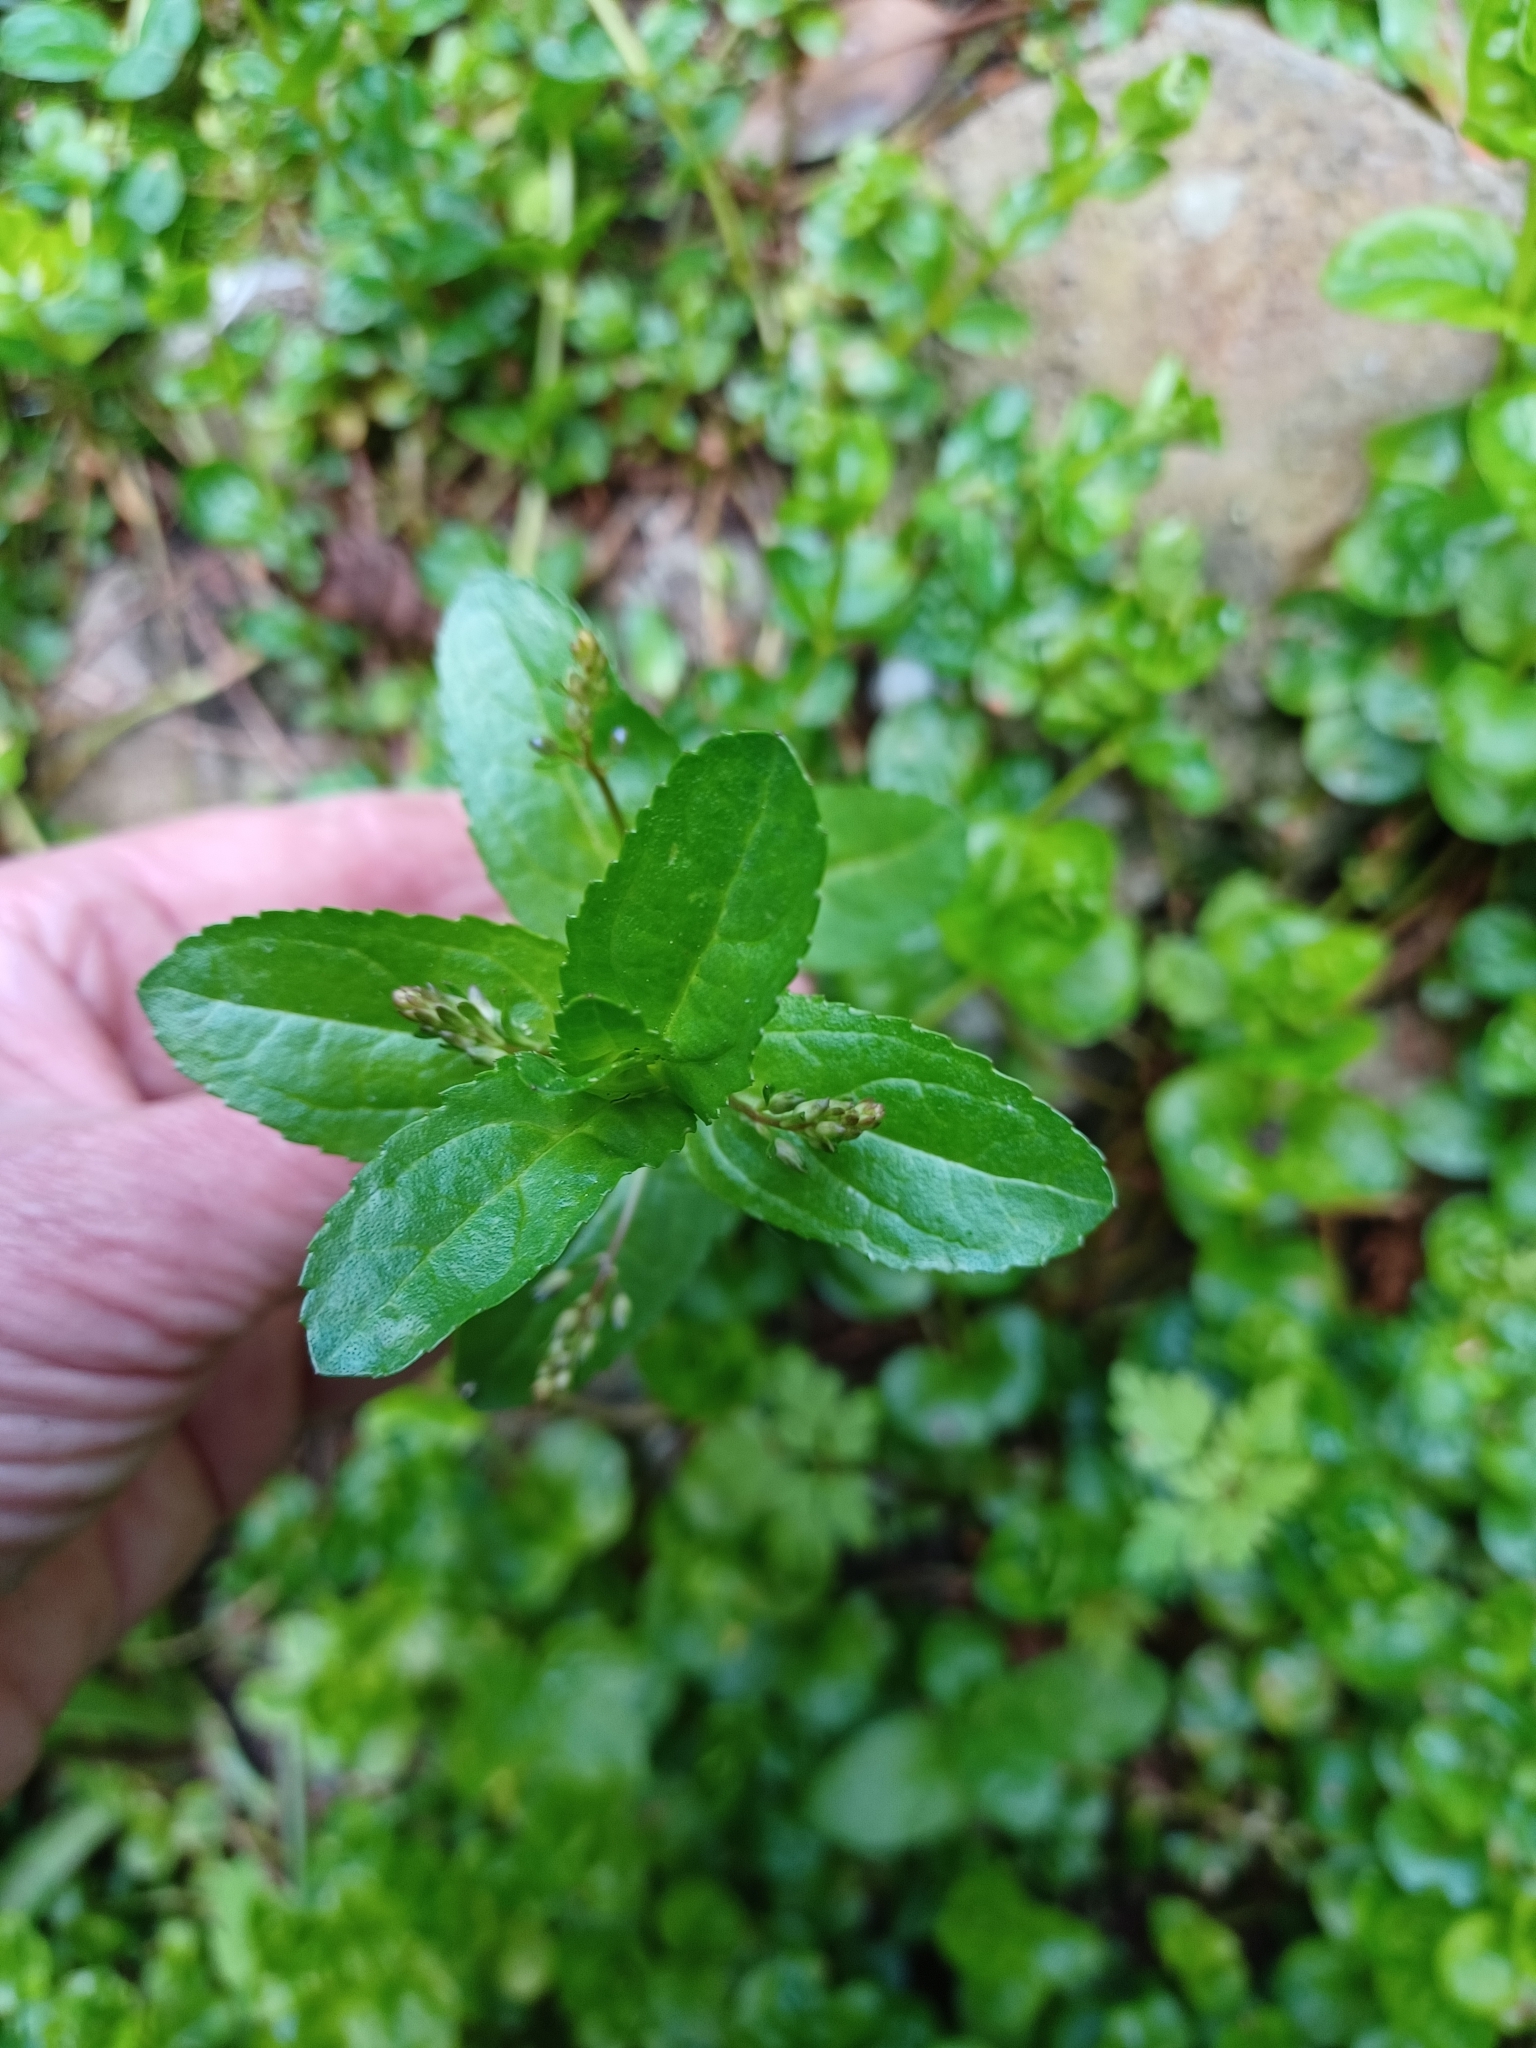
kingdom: Plantae
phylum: Tracheophyta
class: Magnoliopsida
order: Lamiales
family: Plantaginaceae
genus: Veronica
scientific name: Veronica beccabunga
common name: Brooklime
